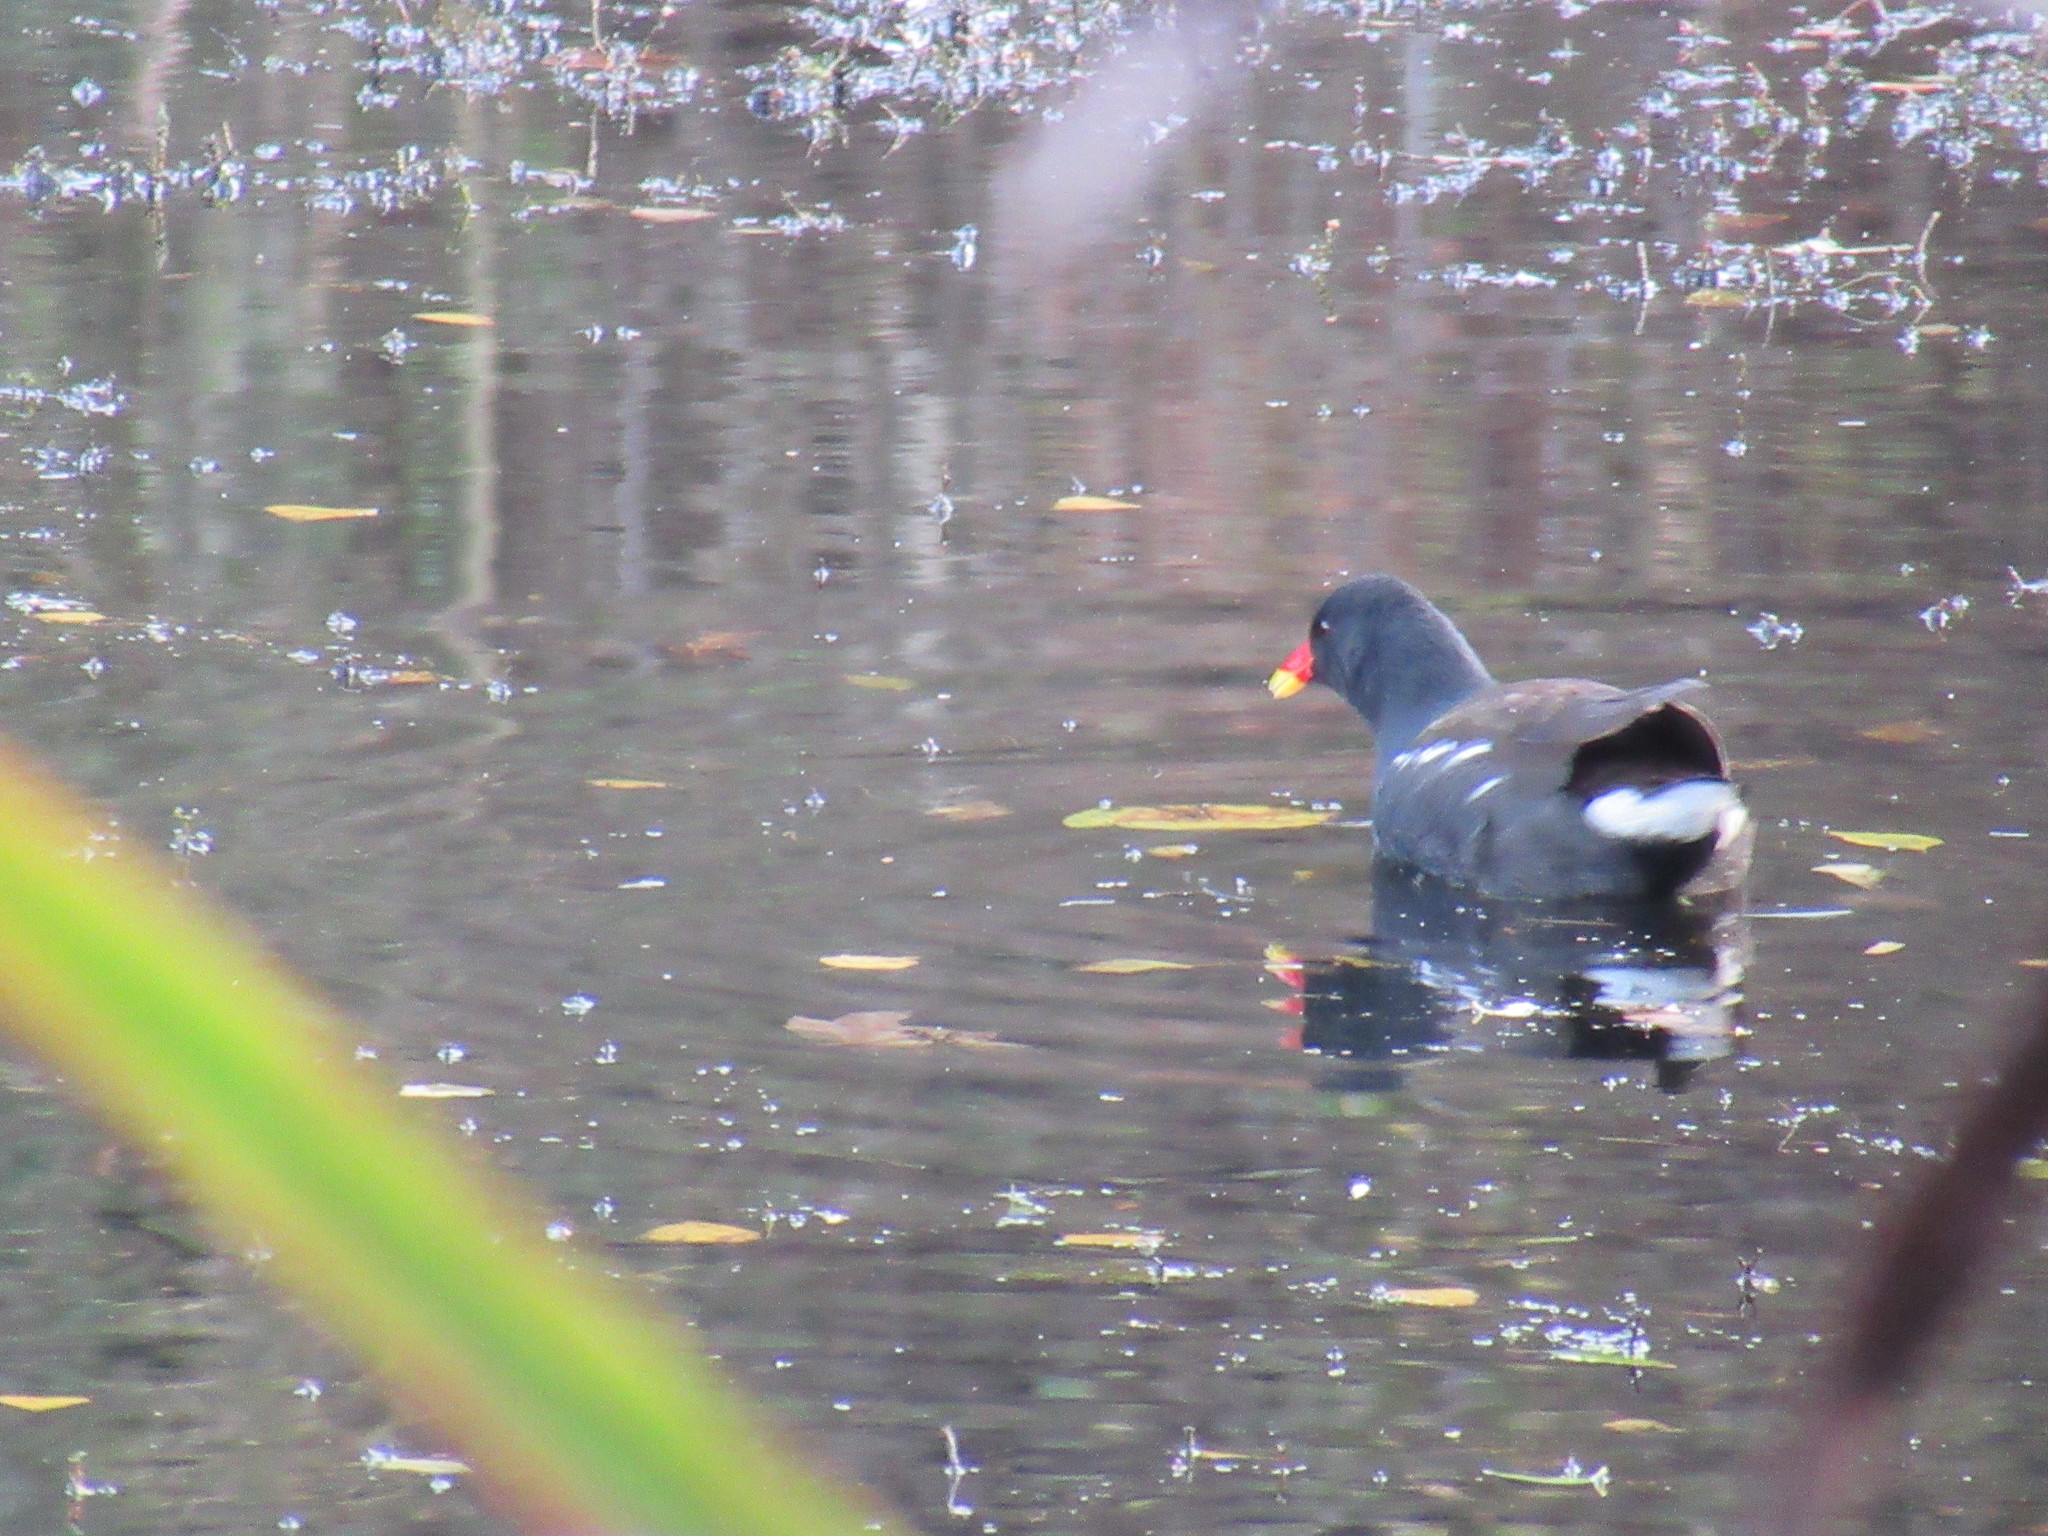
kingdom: Animalia
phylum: Chordata
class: Aves
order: Gruiformes
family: Rallidae
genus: Gallinula
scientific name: Gallinula chloropus
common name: Common moorhen
